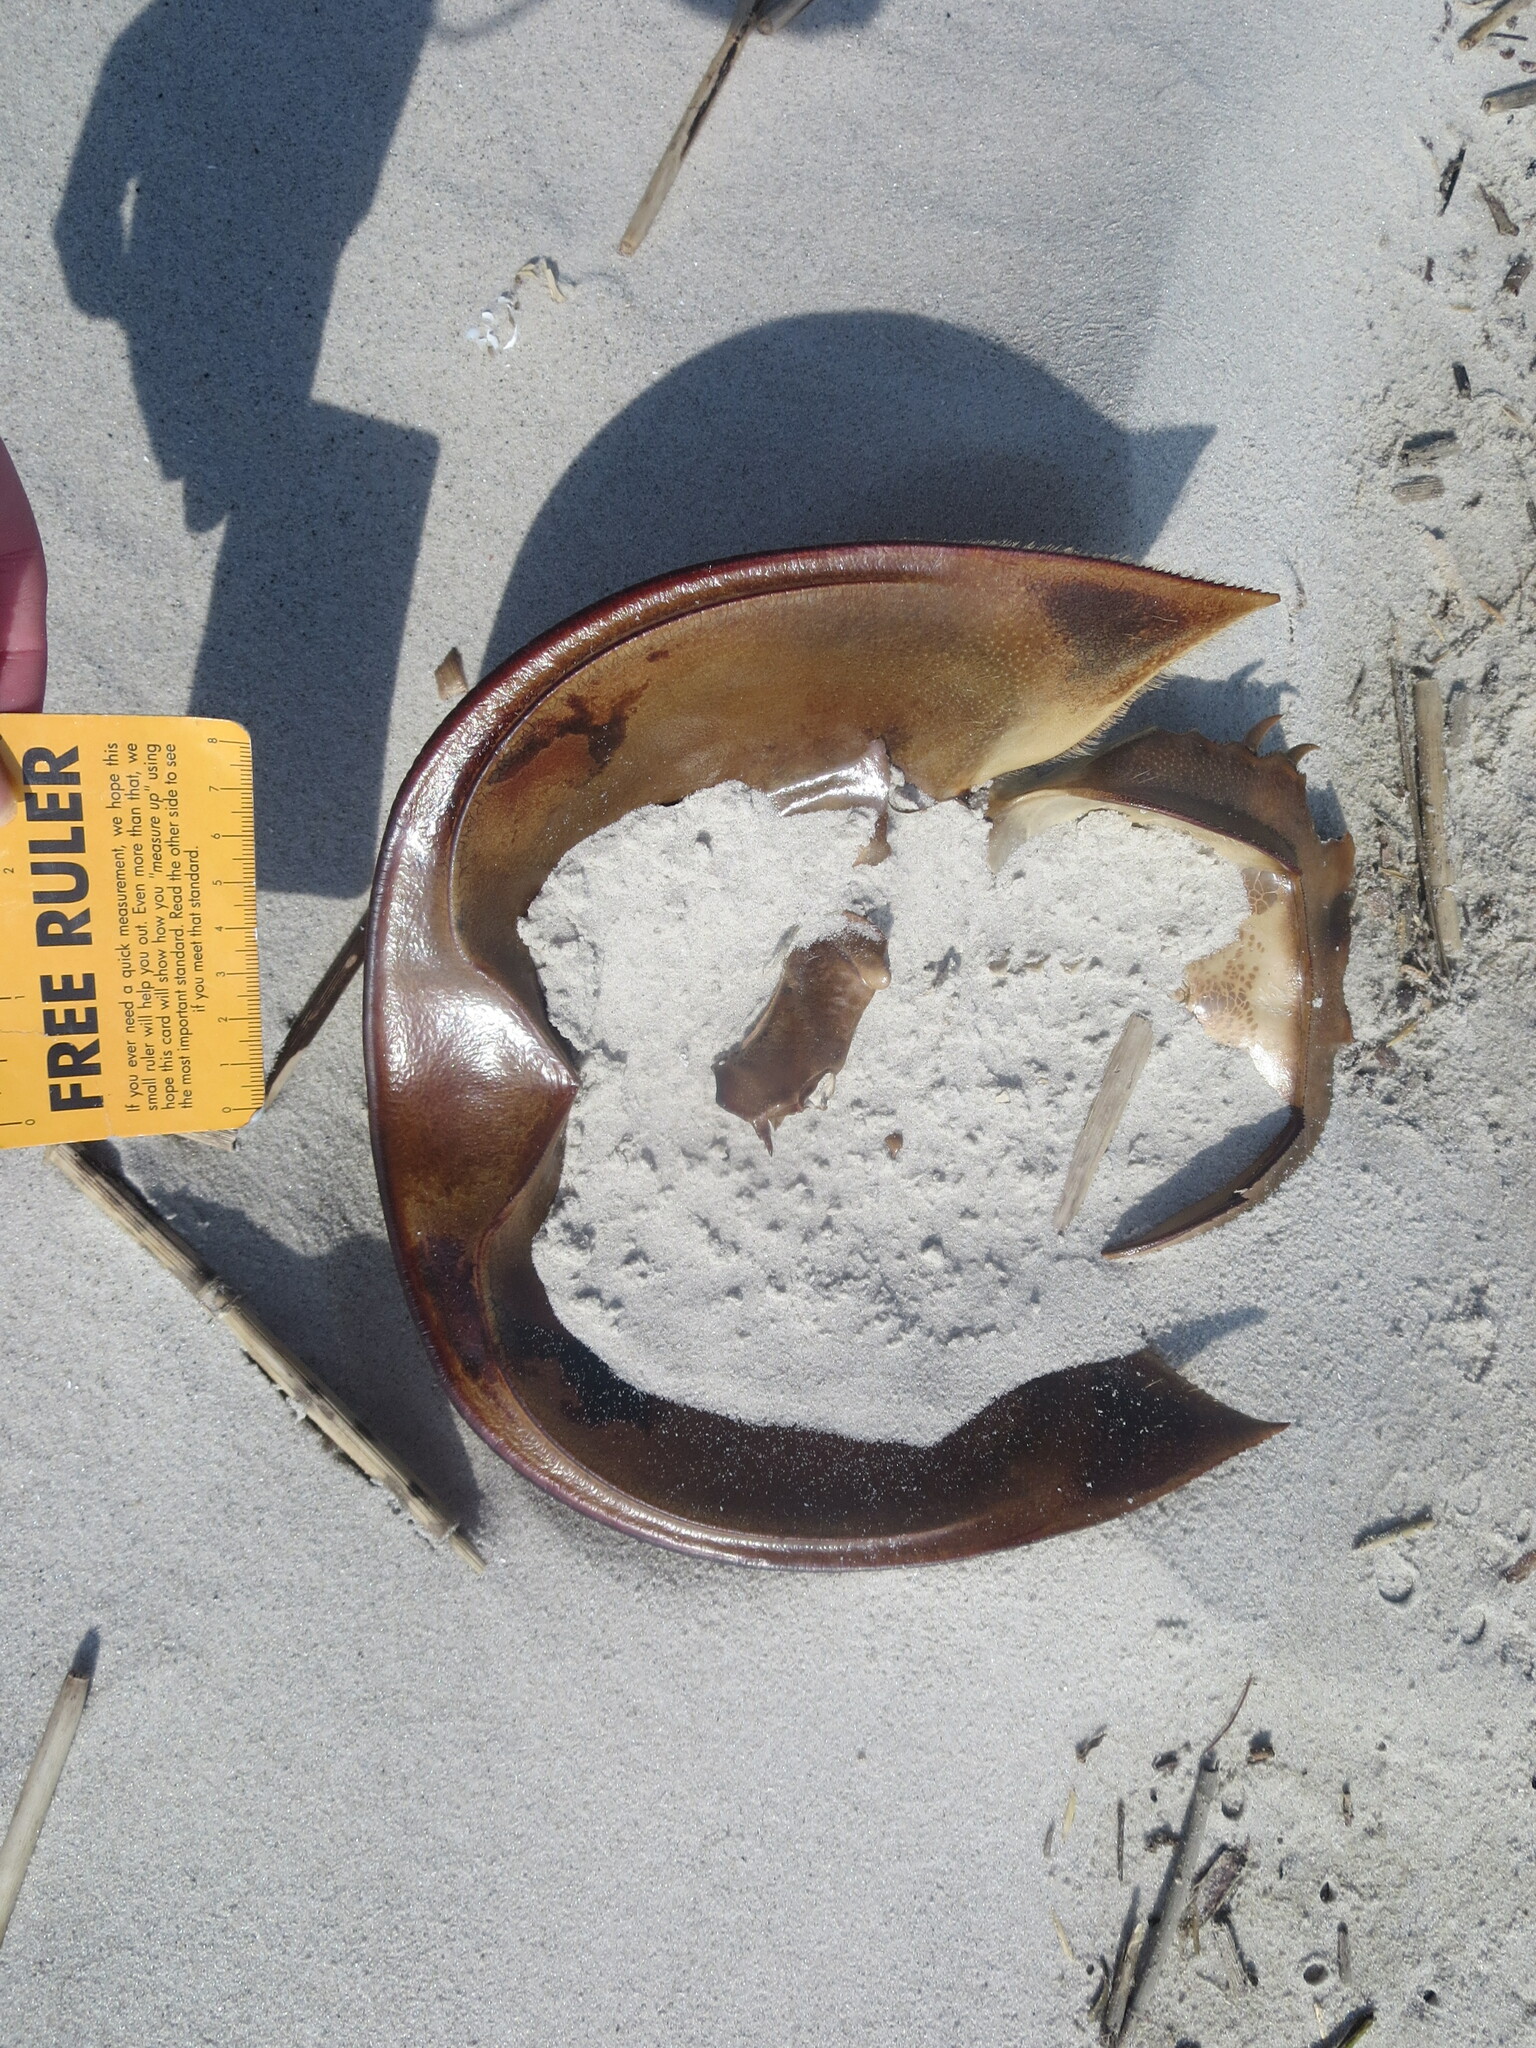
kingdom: Animalia
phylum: Arthropoda
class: Merostomata
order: Xiphosurida
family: Limulidae
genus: Limulus
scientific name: Limulus polyphemus
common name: Horseshoe crab
